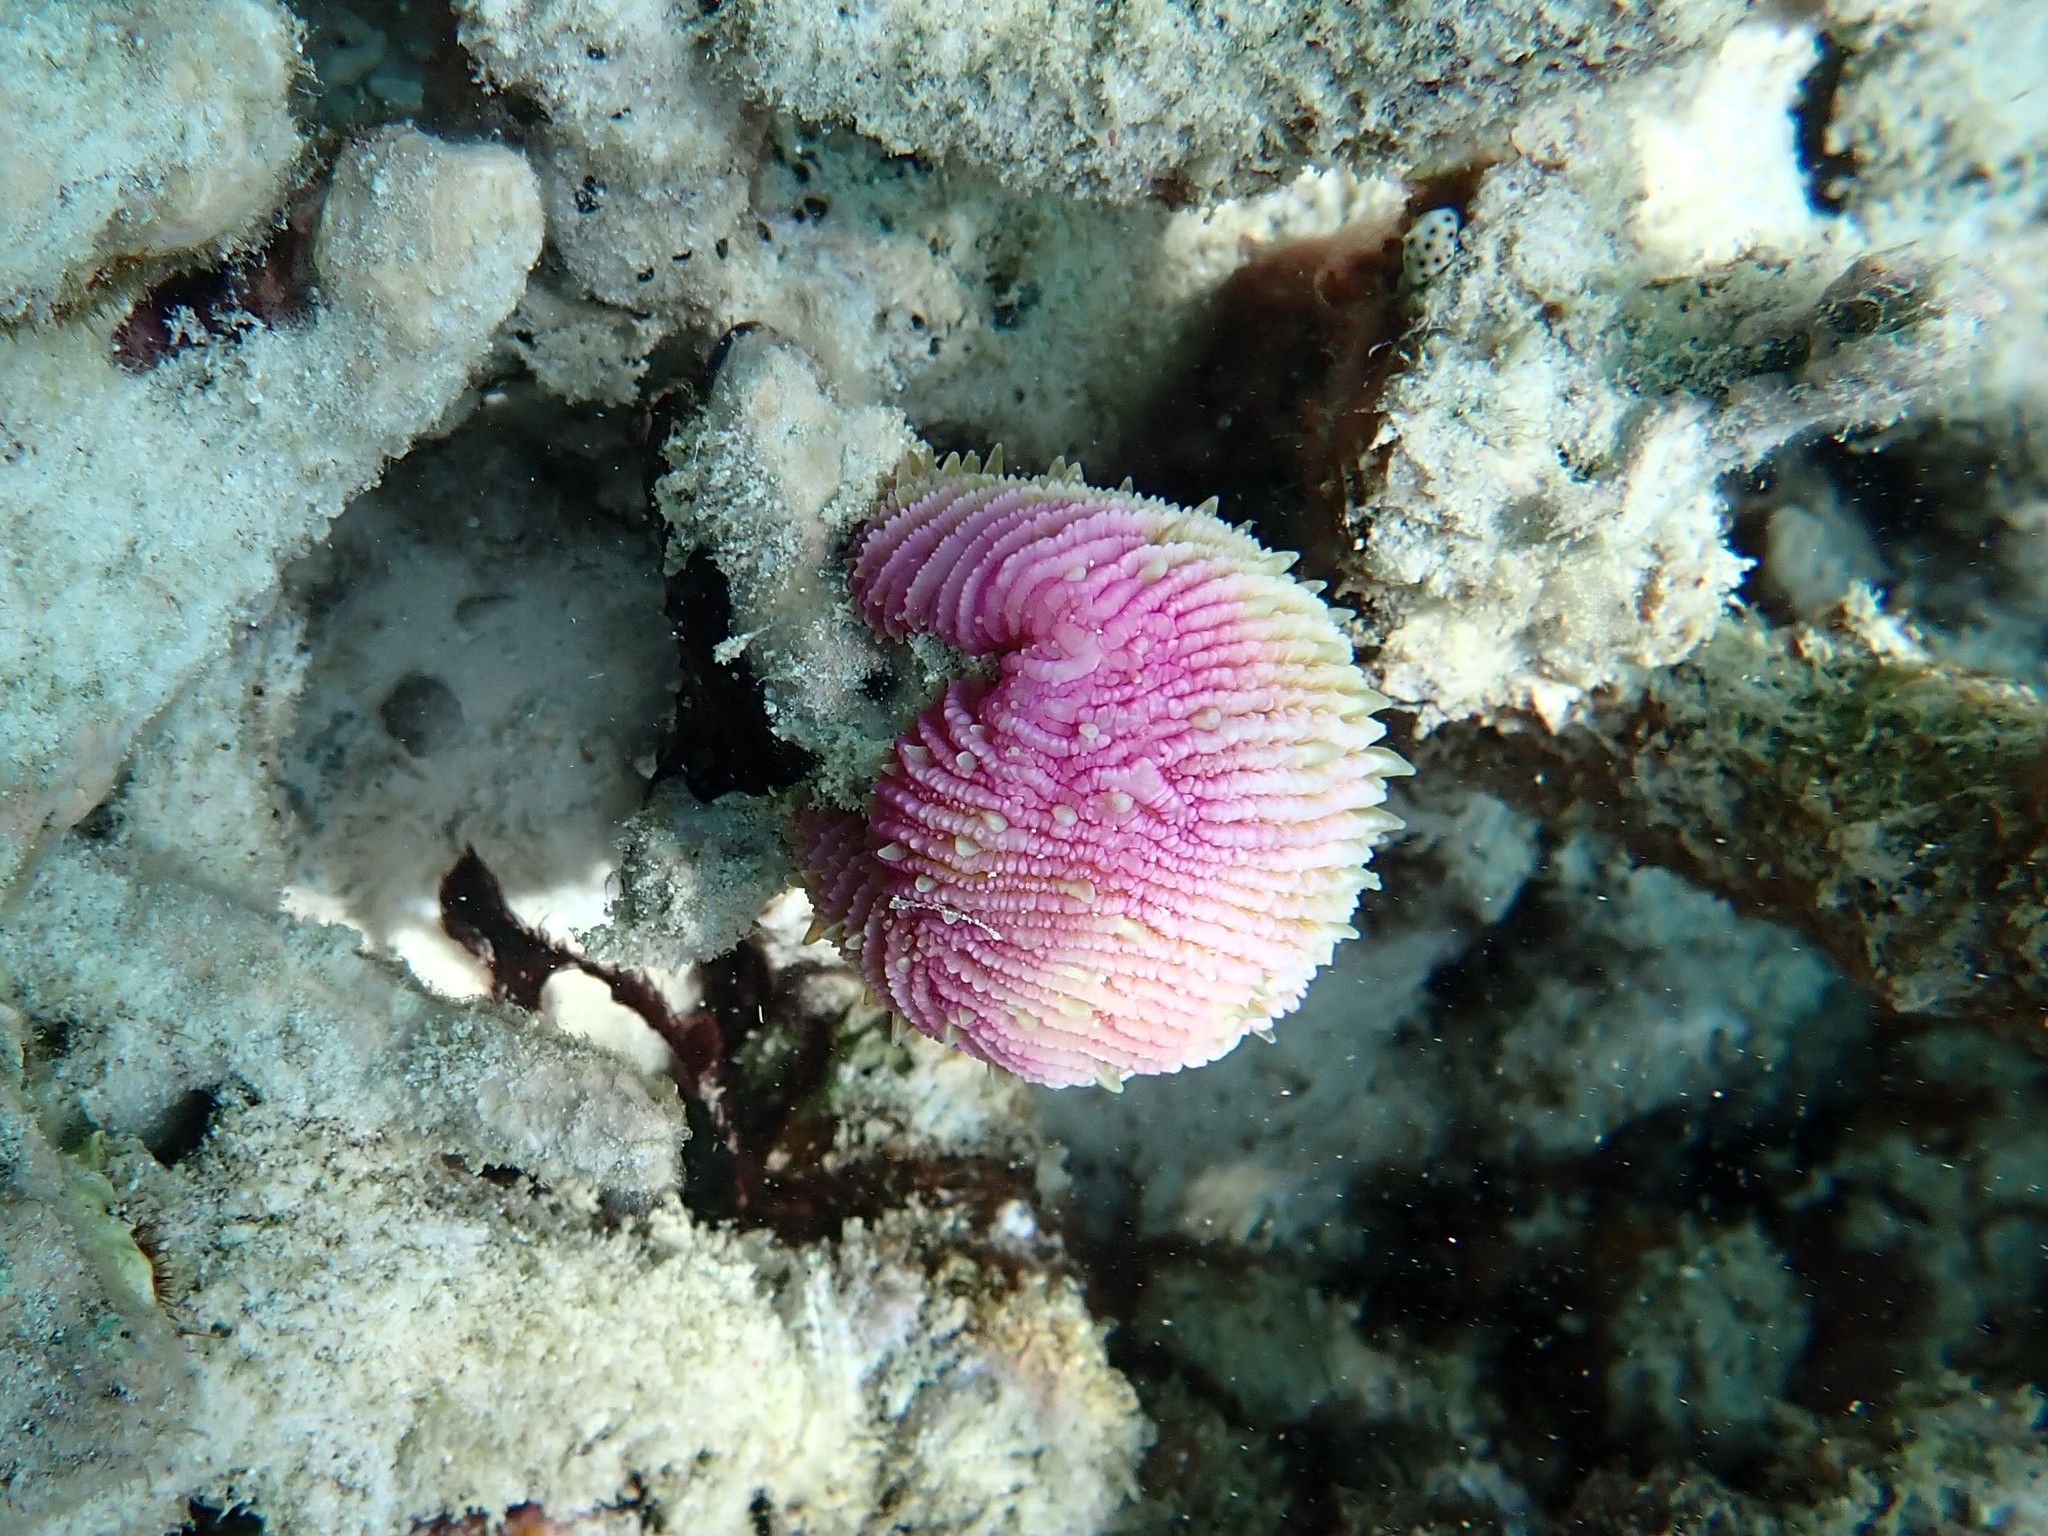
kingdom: Animalia
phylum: Cnidaria
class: Anthozoa
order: Scleractinia
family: Fungiidae
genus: Fungia
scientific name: Fungia fungites
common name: Mushroom coral
